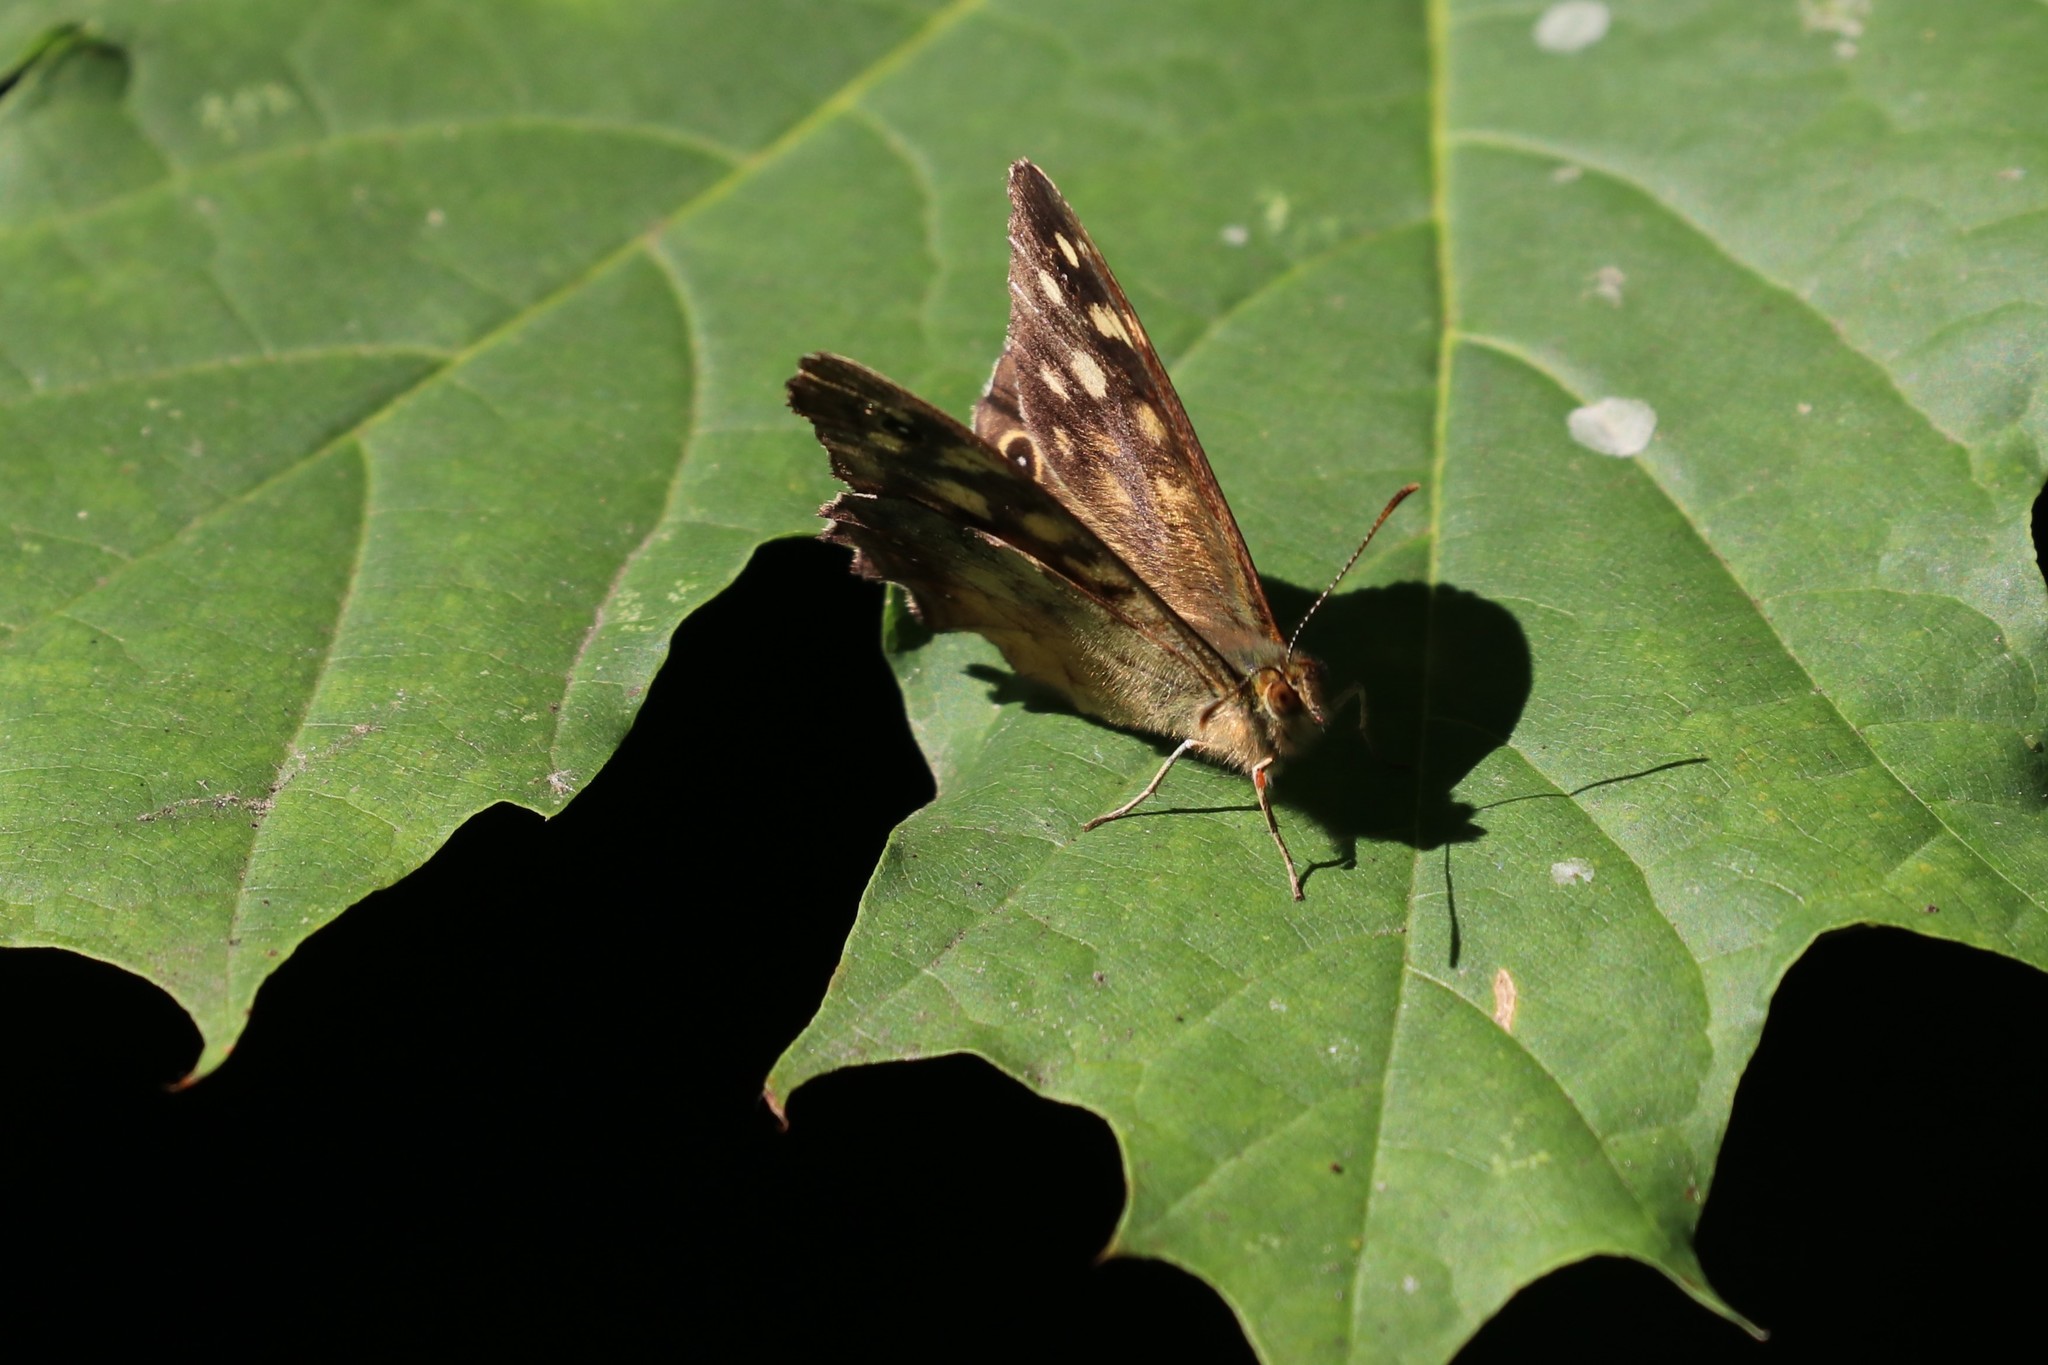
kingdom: Animalia
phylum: Arthropoda
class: Insecta
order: Lepidoptera
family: Nymphalidae
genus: Pararge
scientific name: Pararge aegeria
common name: Speckled wood
